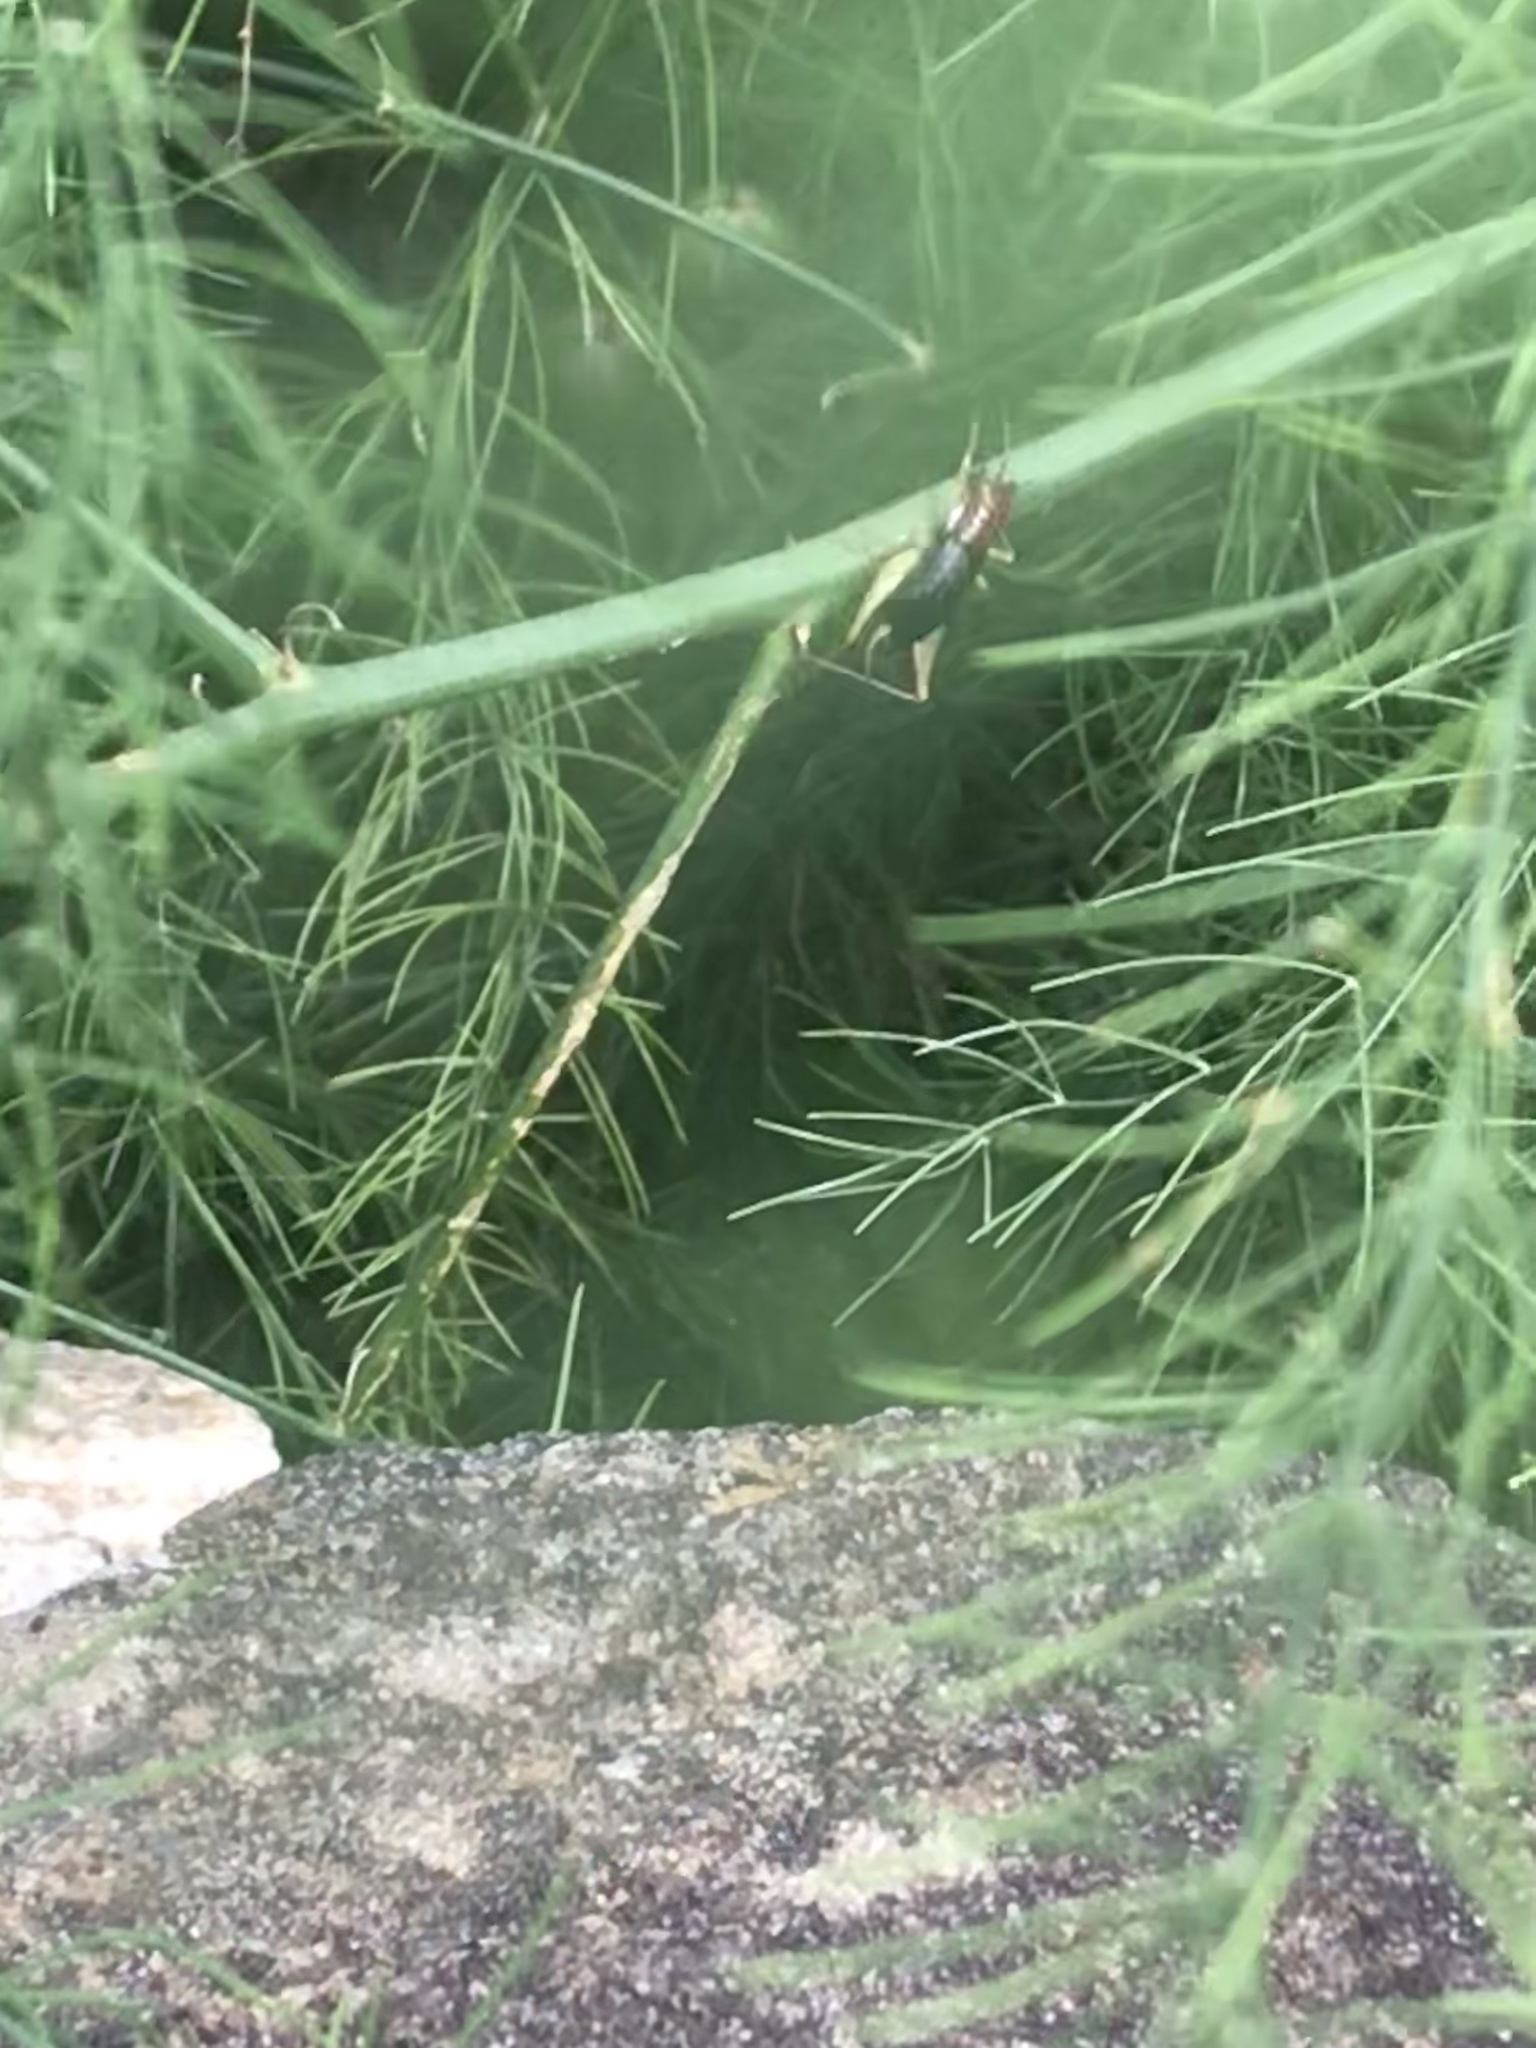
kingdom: Animalia
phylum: Arthropoda
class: Insecta
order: Orthoptera
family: Trigonidiidae
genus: Phyllopalpus
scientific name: Phyllopalpus pulchellus
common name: Handsome trig
